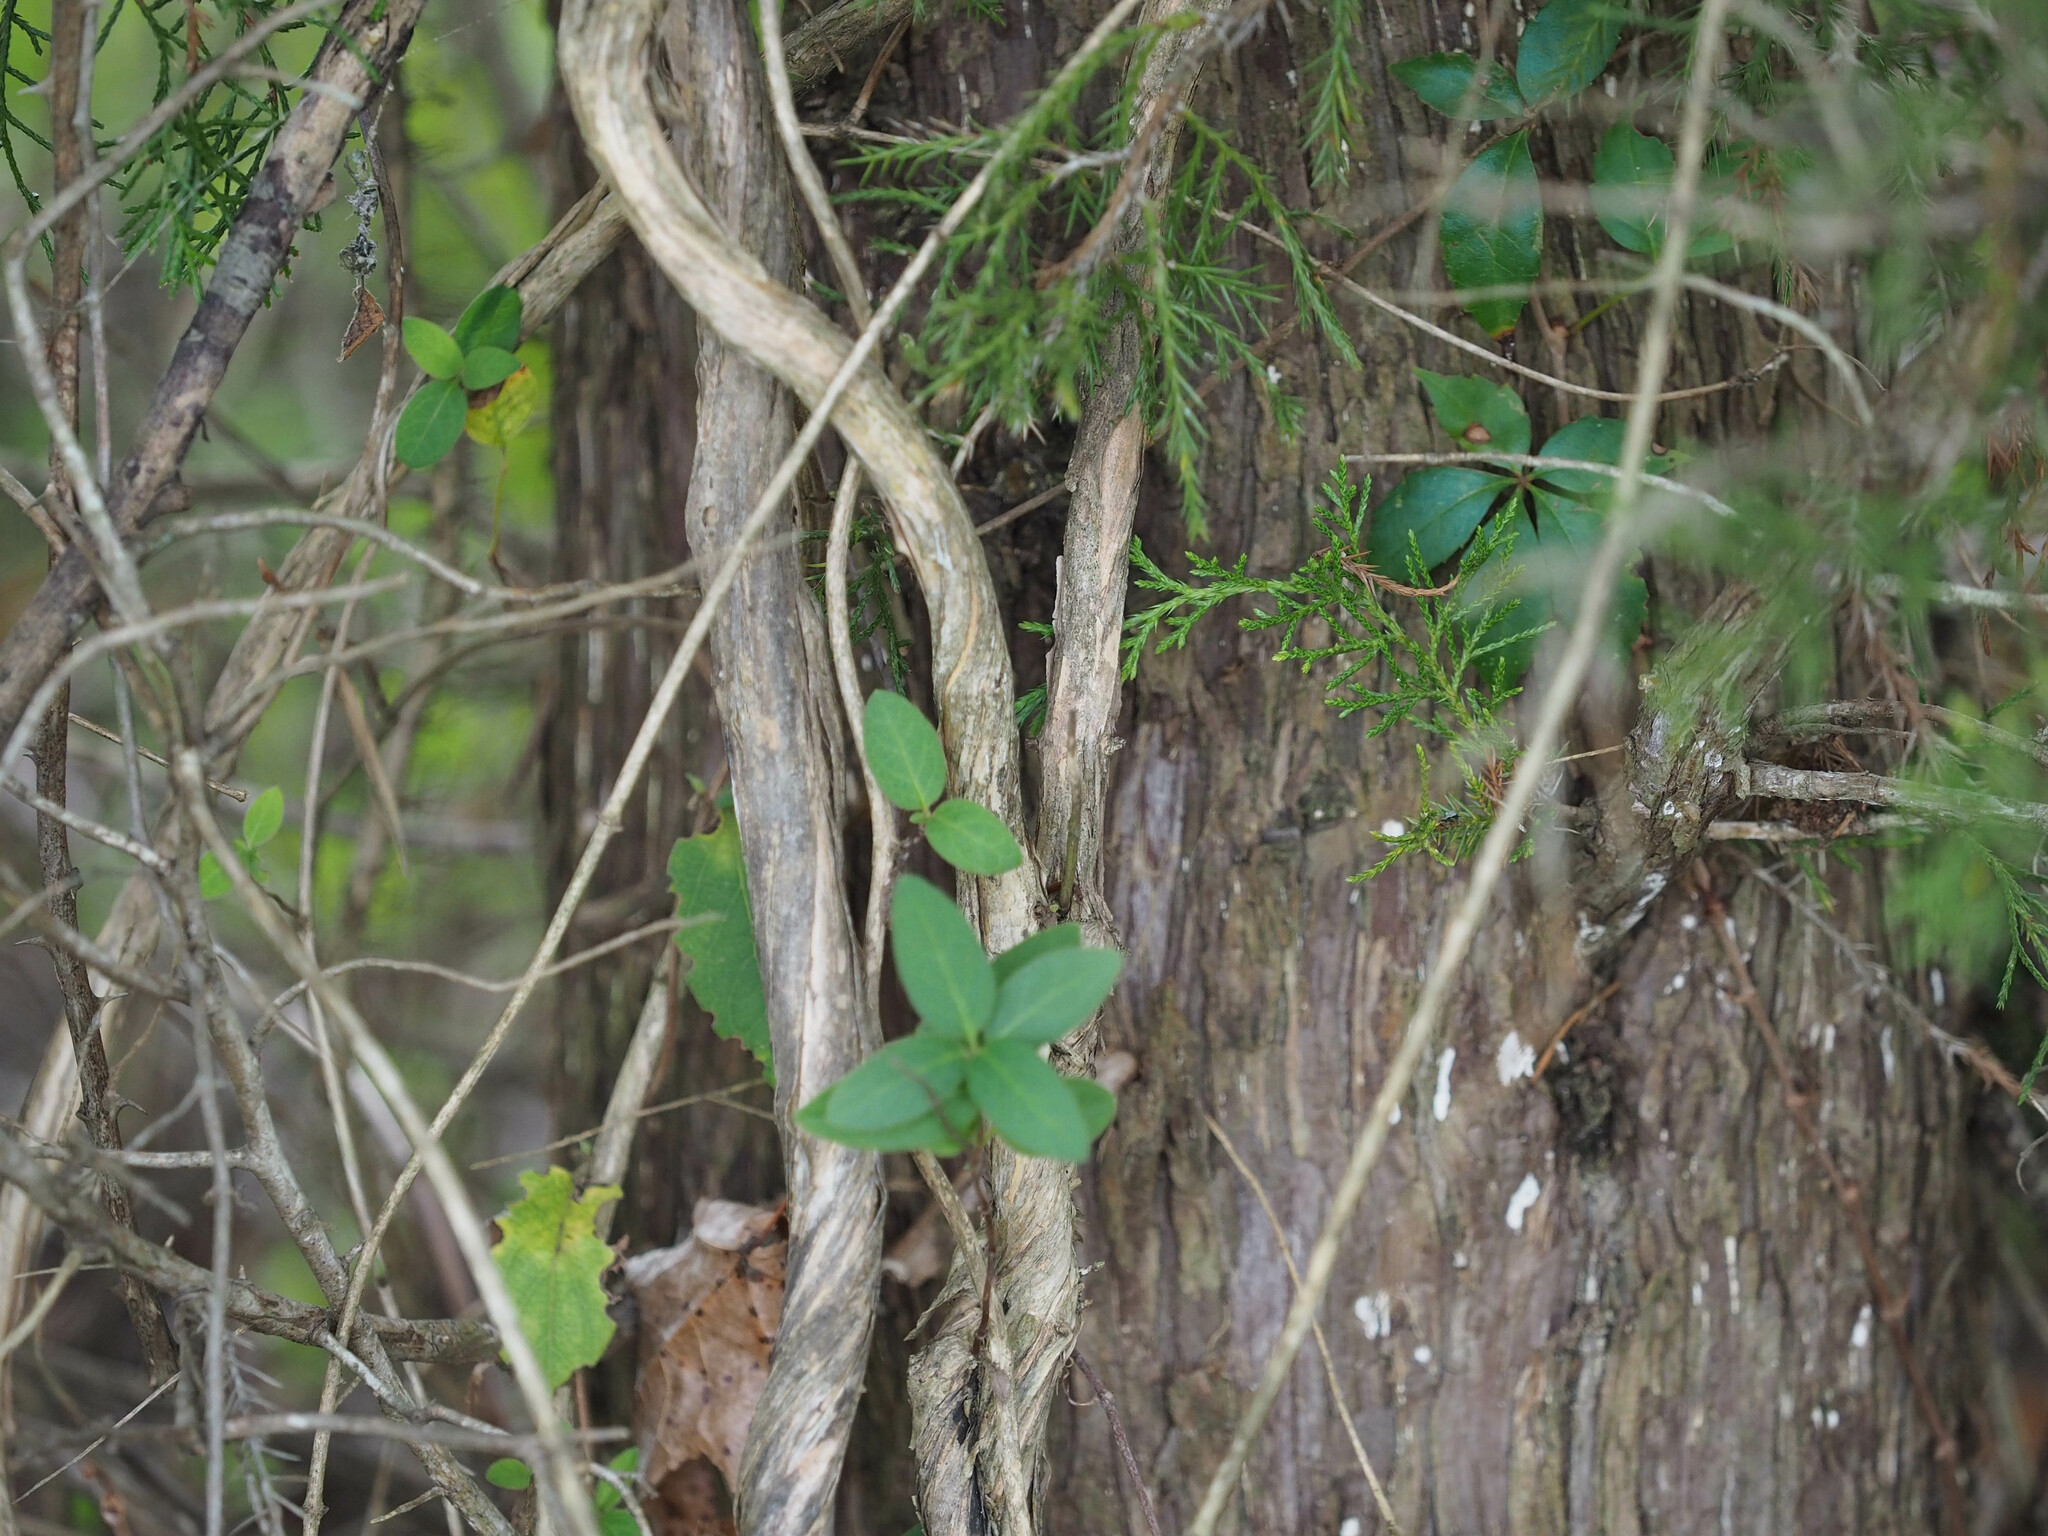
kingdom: Plantae
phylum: Tracheophyta
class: Magnoliopsida
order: Dipsacales
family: Caprifoliaceae
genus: Lonicera
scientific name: Lonicera japonica
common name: Japanese honeysuckle
